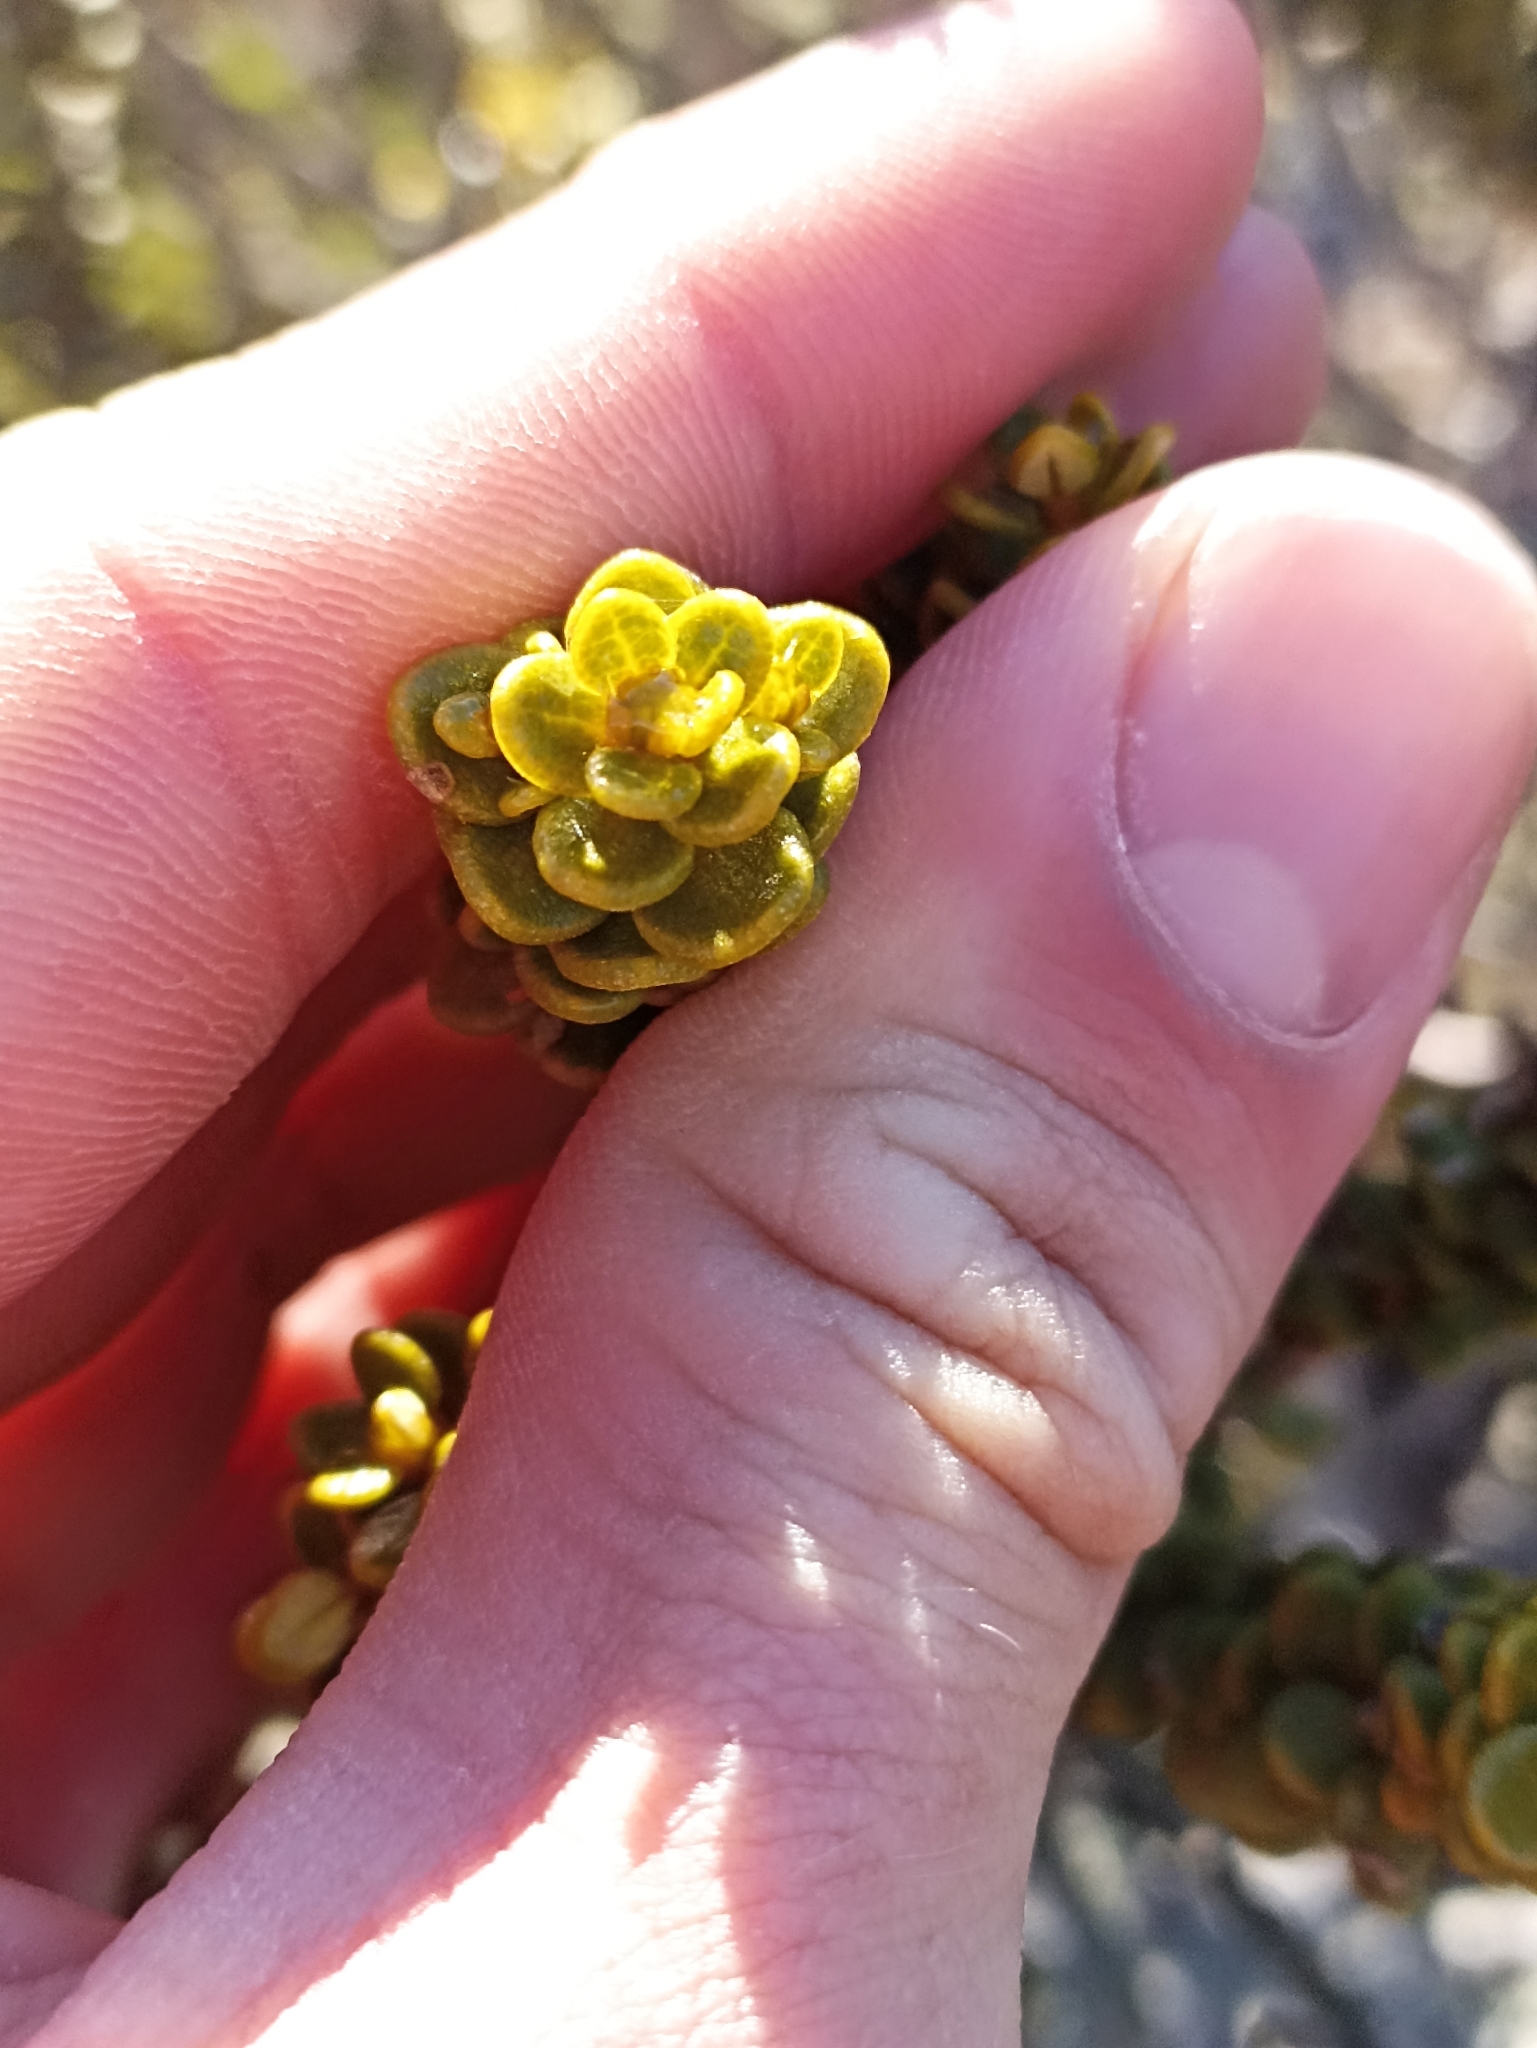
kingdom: Plantae
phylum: Tracheophyta
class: Magnoliopsida
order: Asterales
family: Asteraceae
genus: Olearia
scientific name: Olearia nummularifolia
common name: Sticky daisybush
